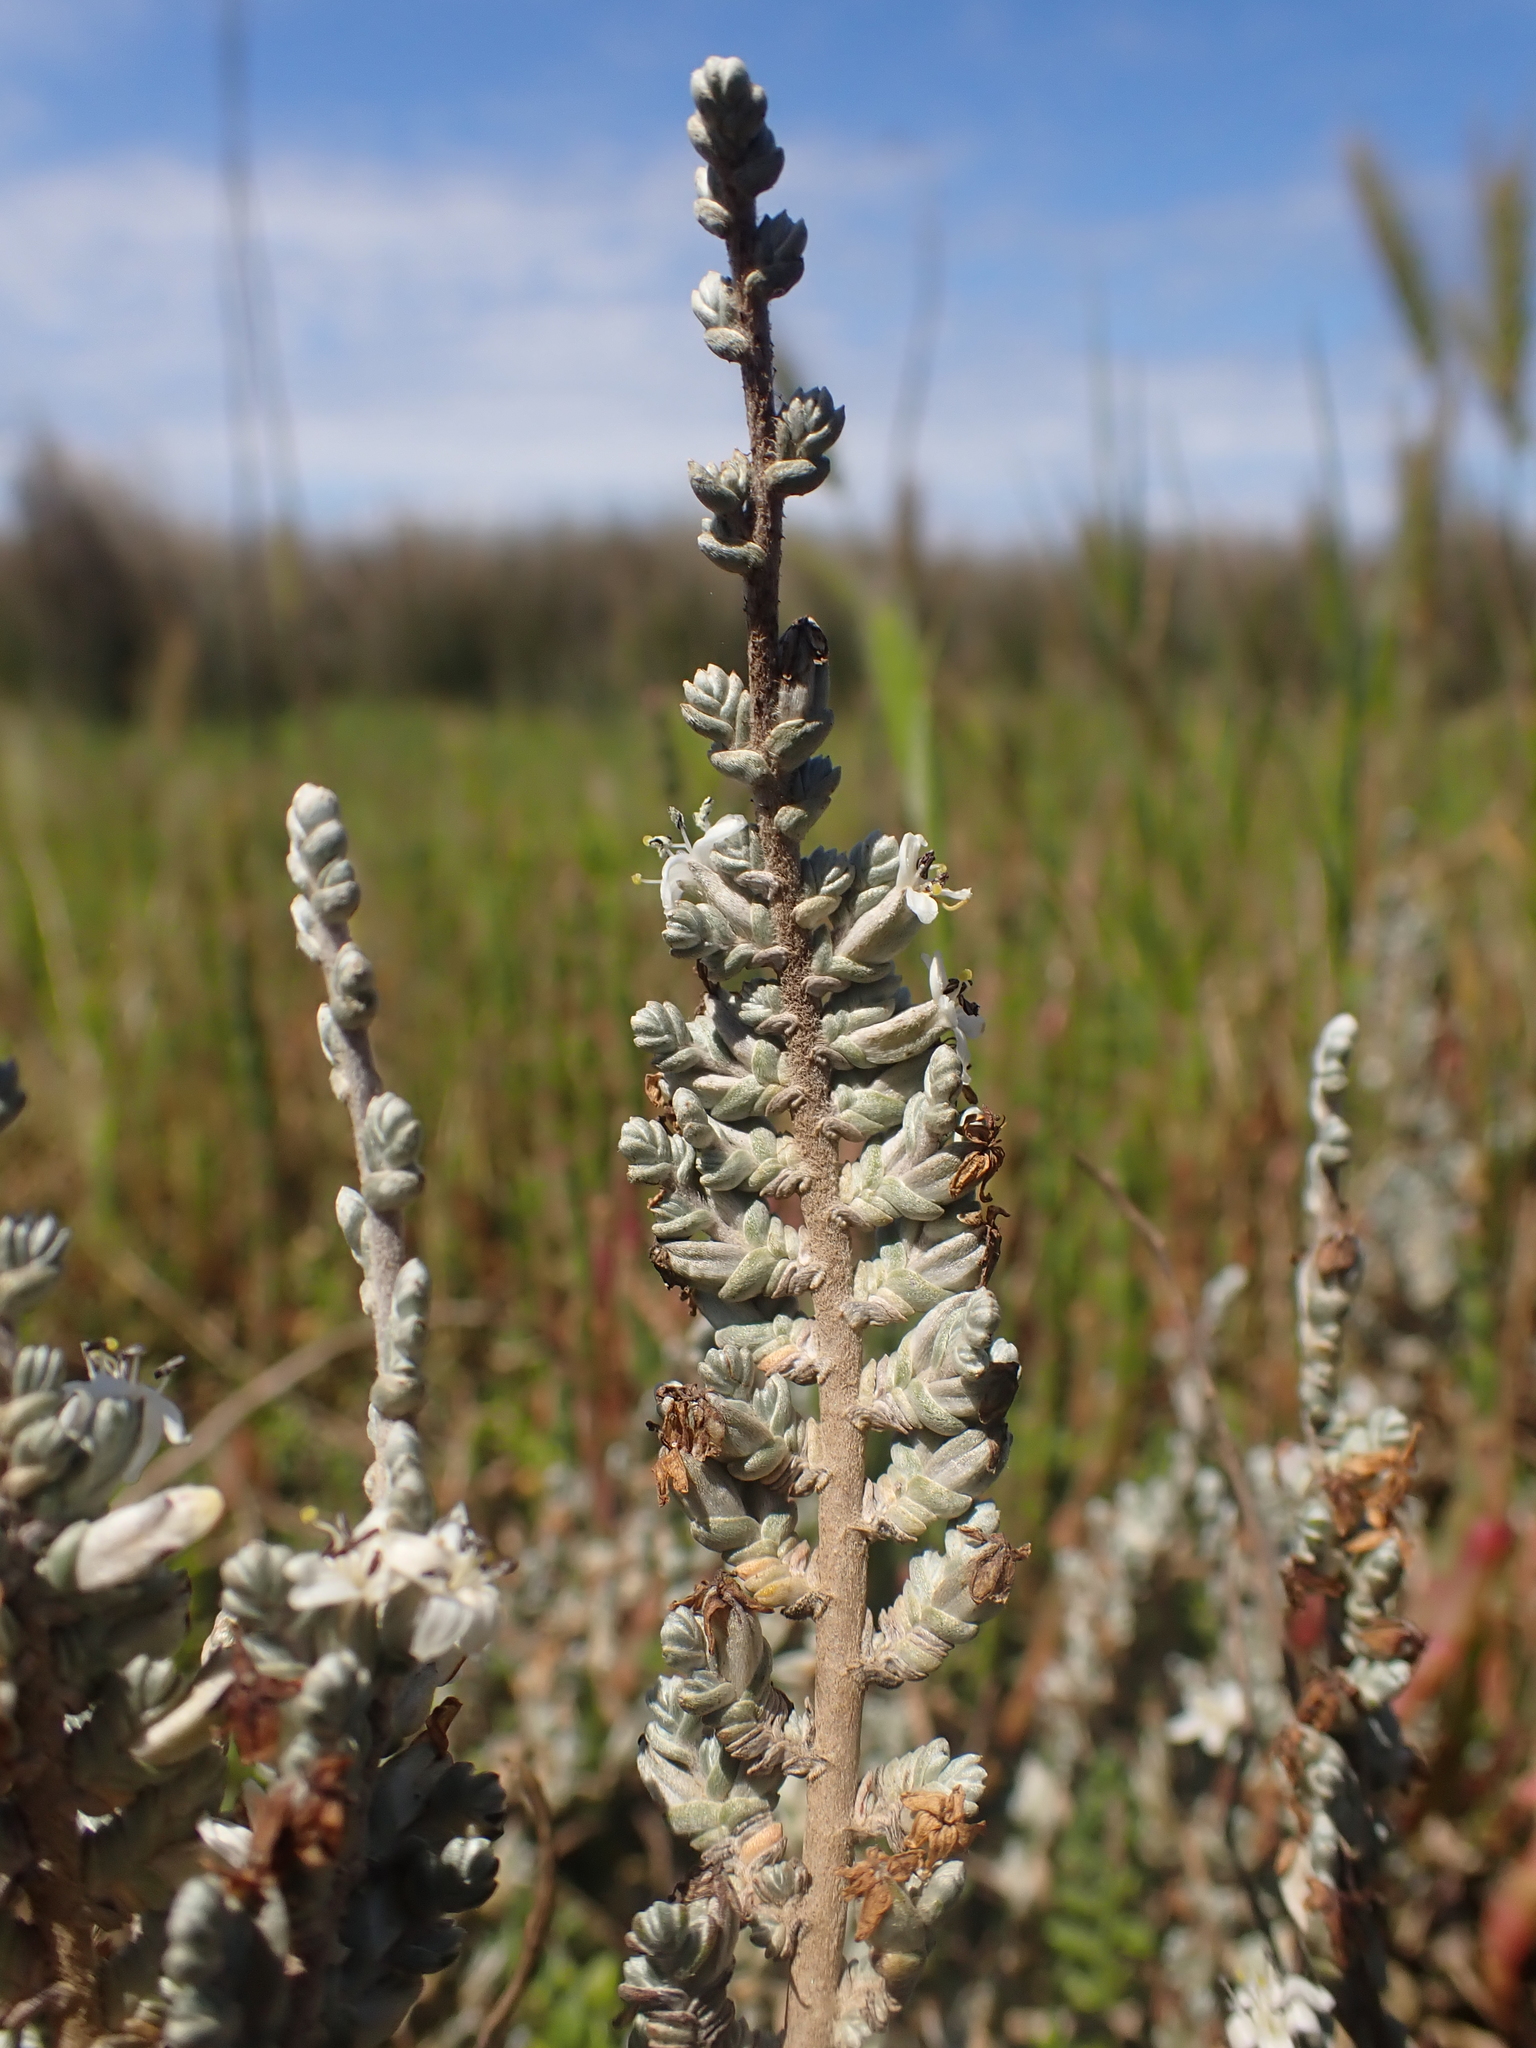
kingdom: Plantae
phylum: Tracheophyta
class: Magnoliopsida
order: Solanales
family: Convolvulaceae
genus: Wilsonia
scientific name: Wilsonia humilis
